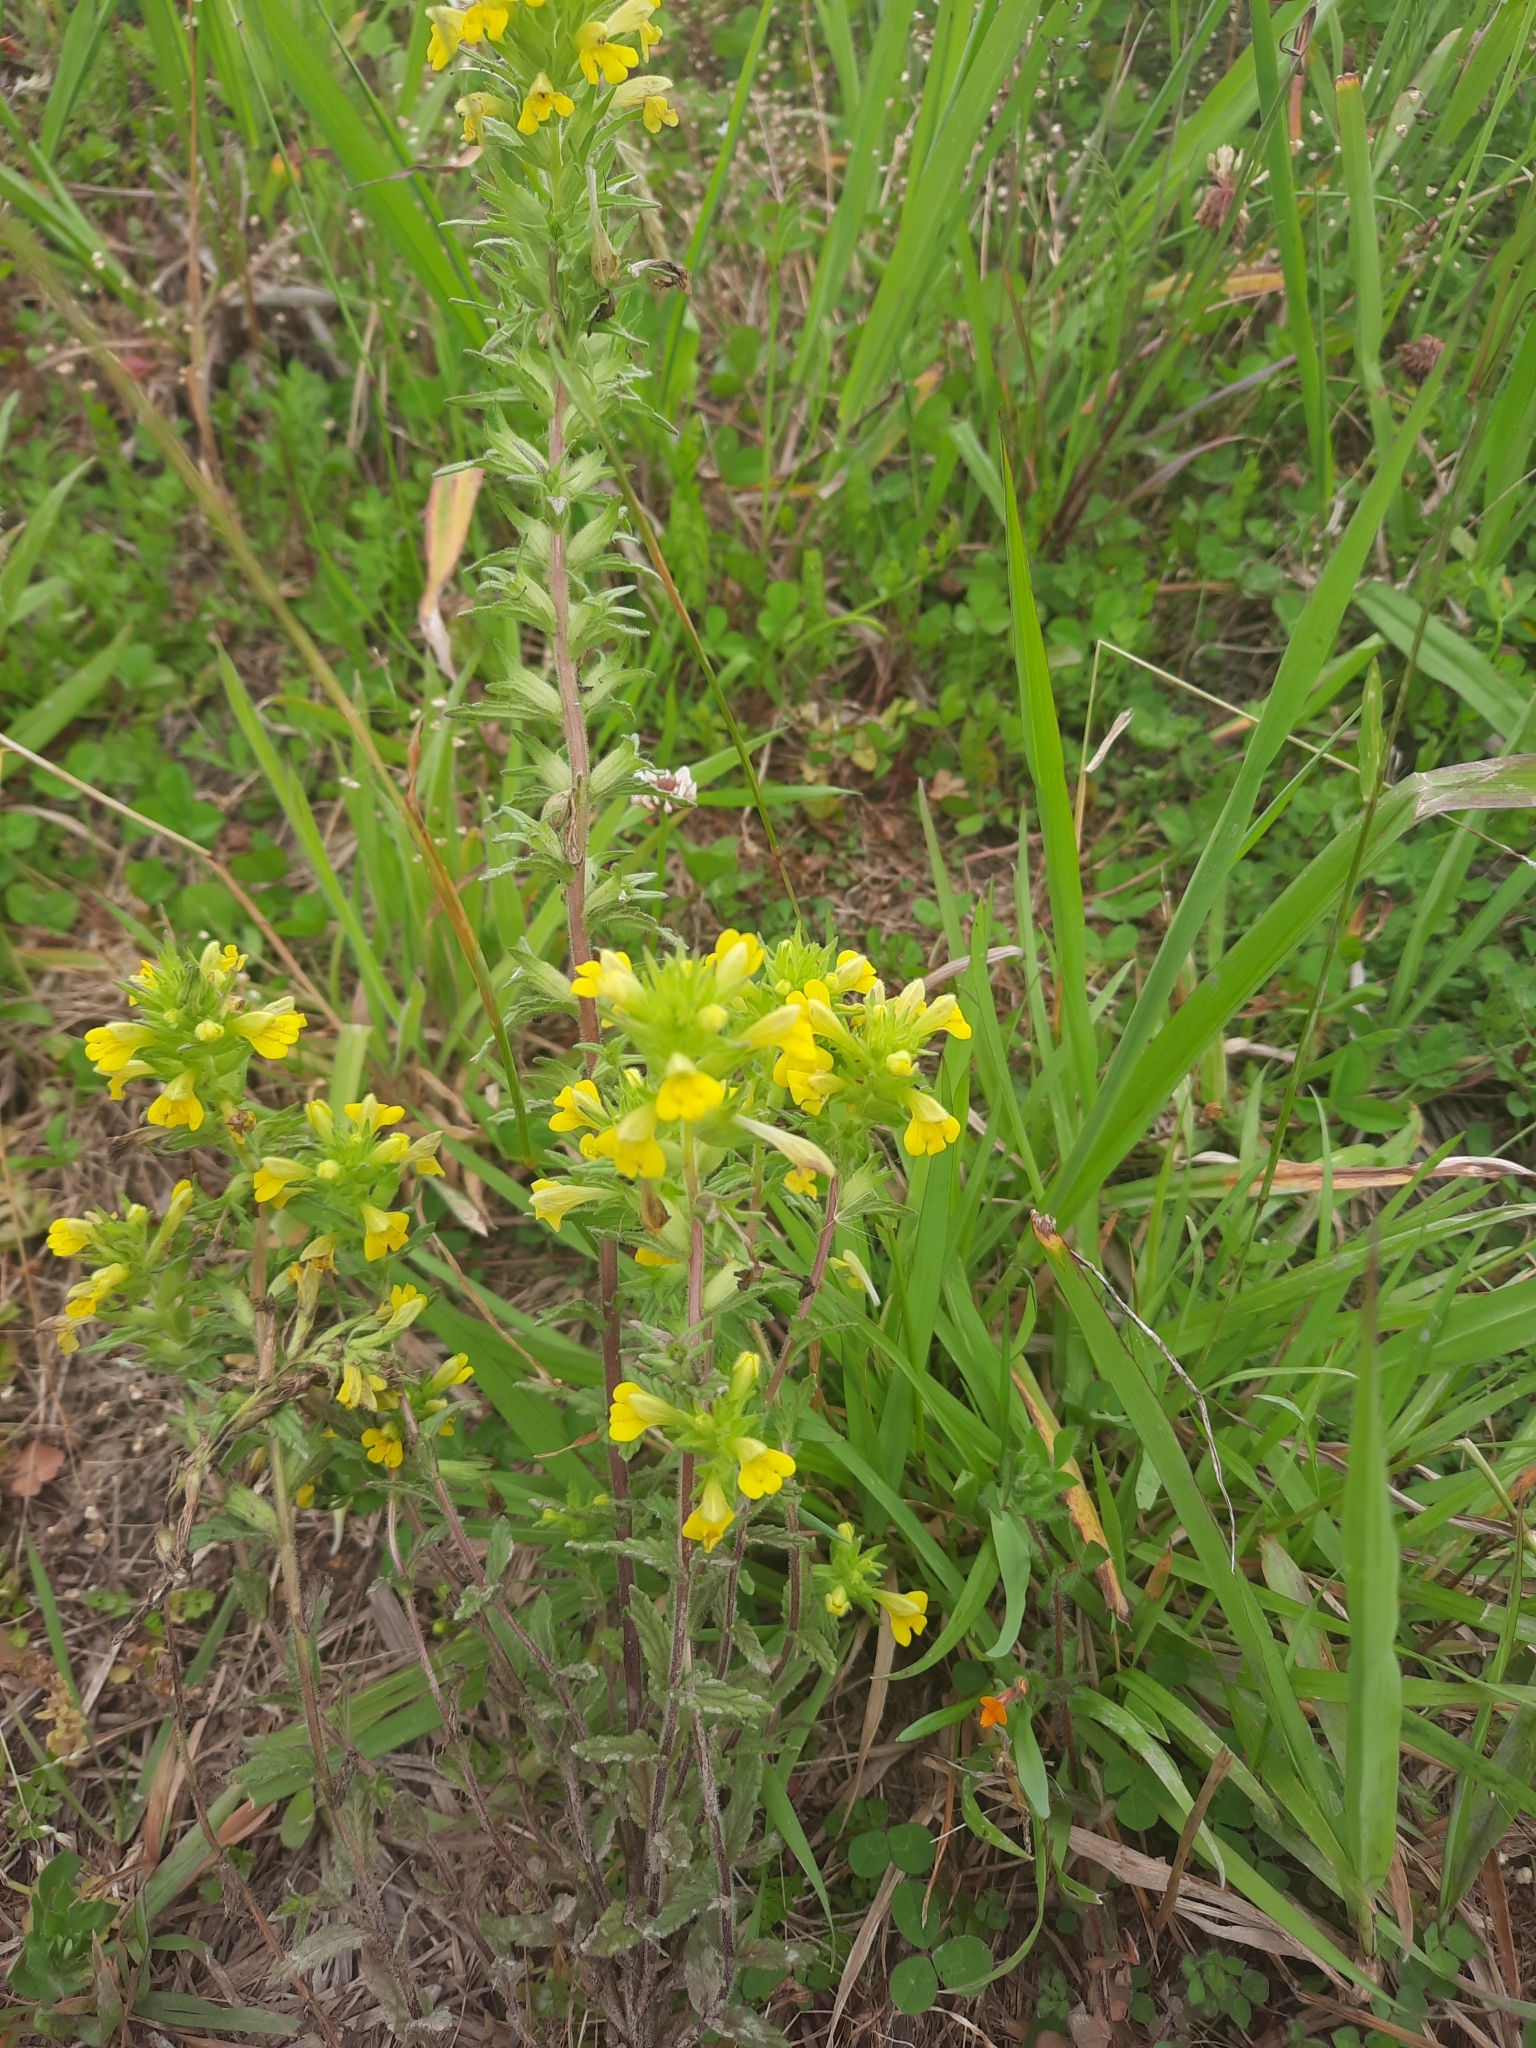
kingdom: Plantae
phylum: Tracheophyta
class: Magnoliopsida
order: Lamiales
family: Orobanchaceae
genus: Bellardia
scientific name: Bellardia viscosa
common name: Sticky parentucellia
